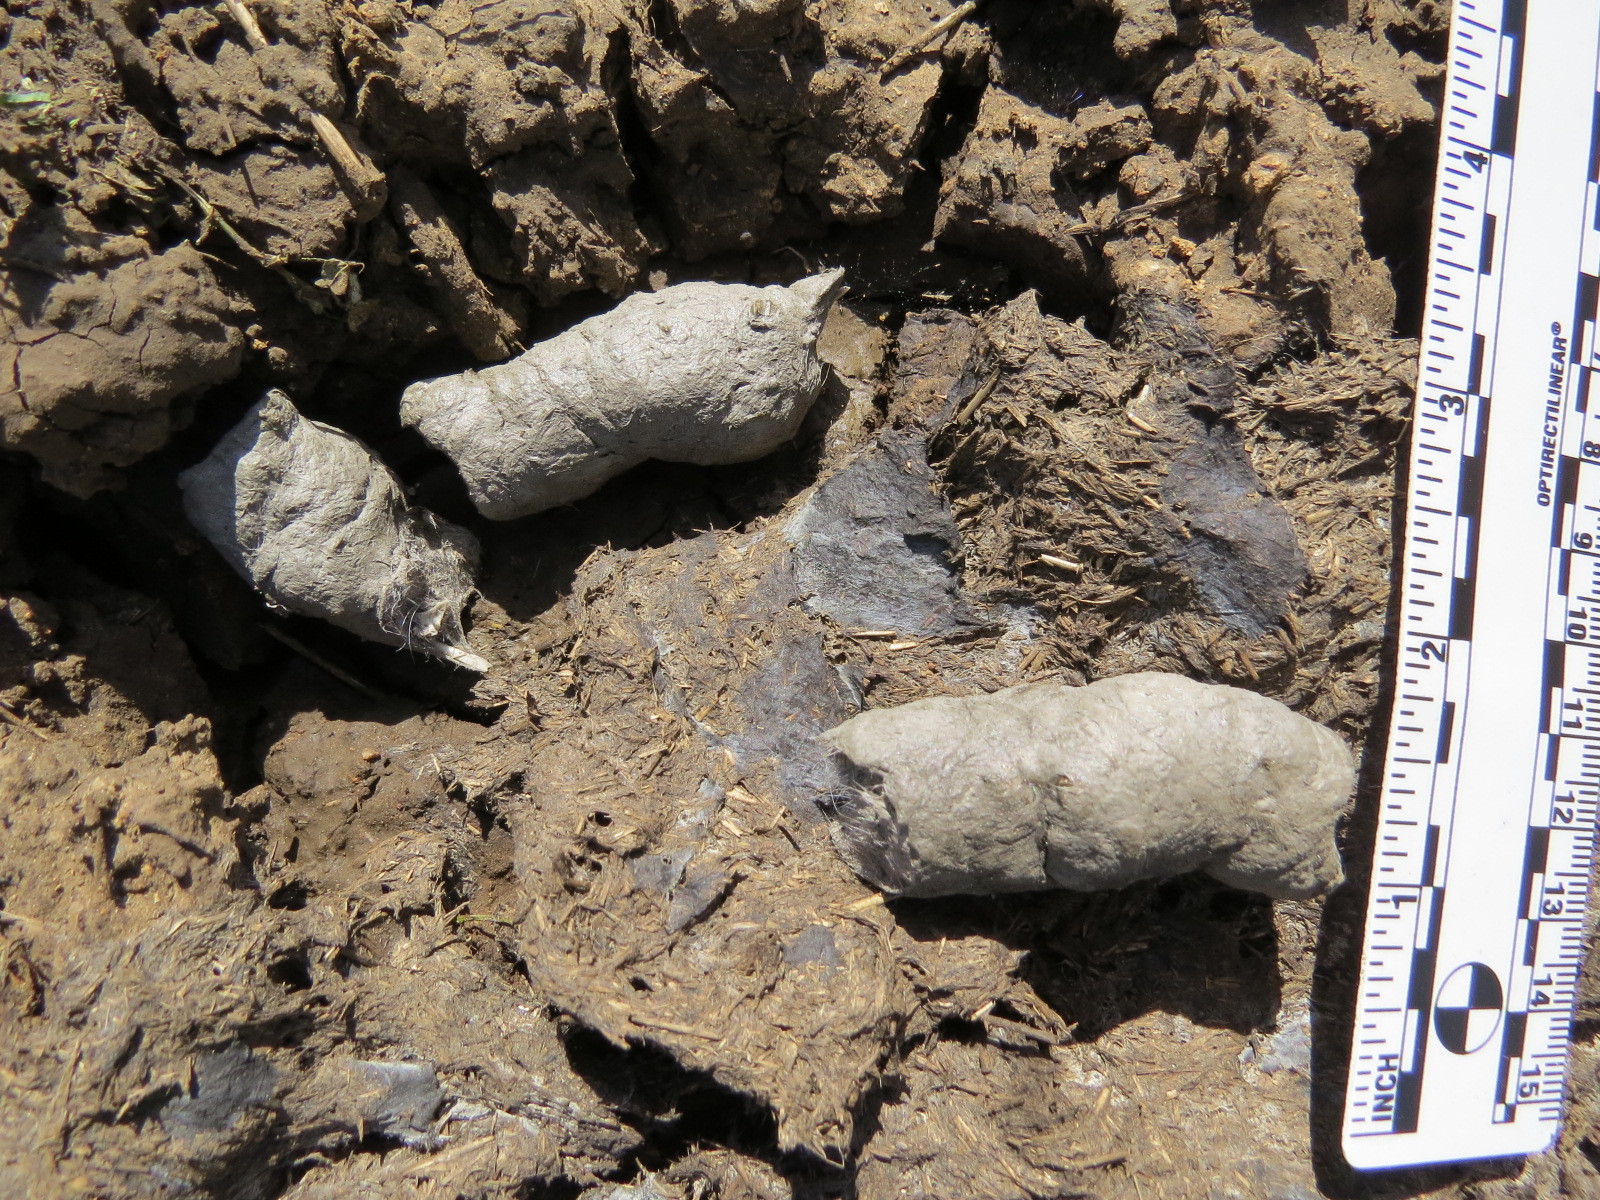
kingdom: Animalia
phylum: Chordata
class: Mammalia
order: Carnivora
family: Felidae
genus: Lynx
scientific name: Lynx rufus
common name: Bobcat
